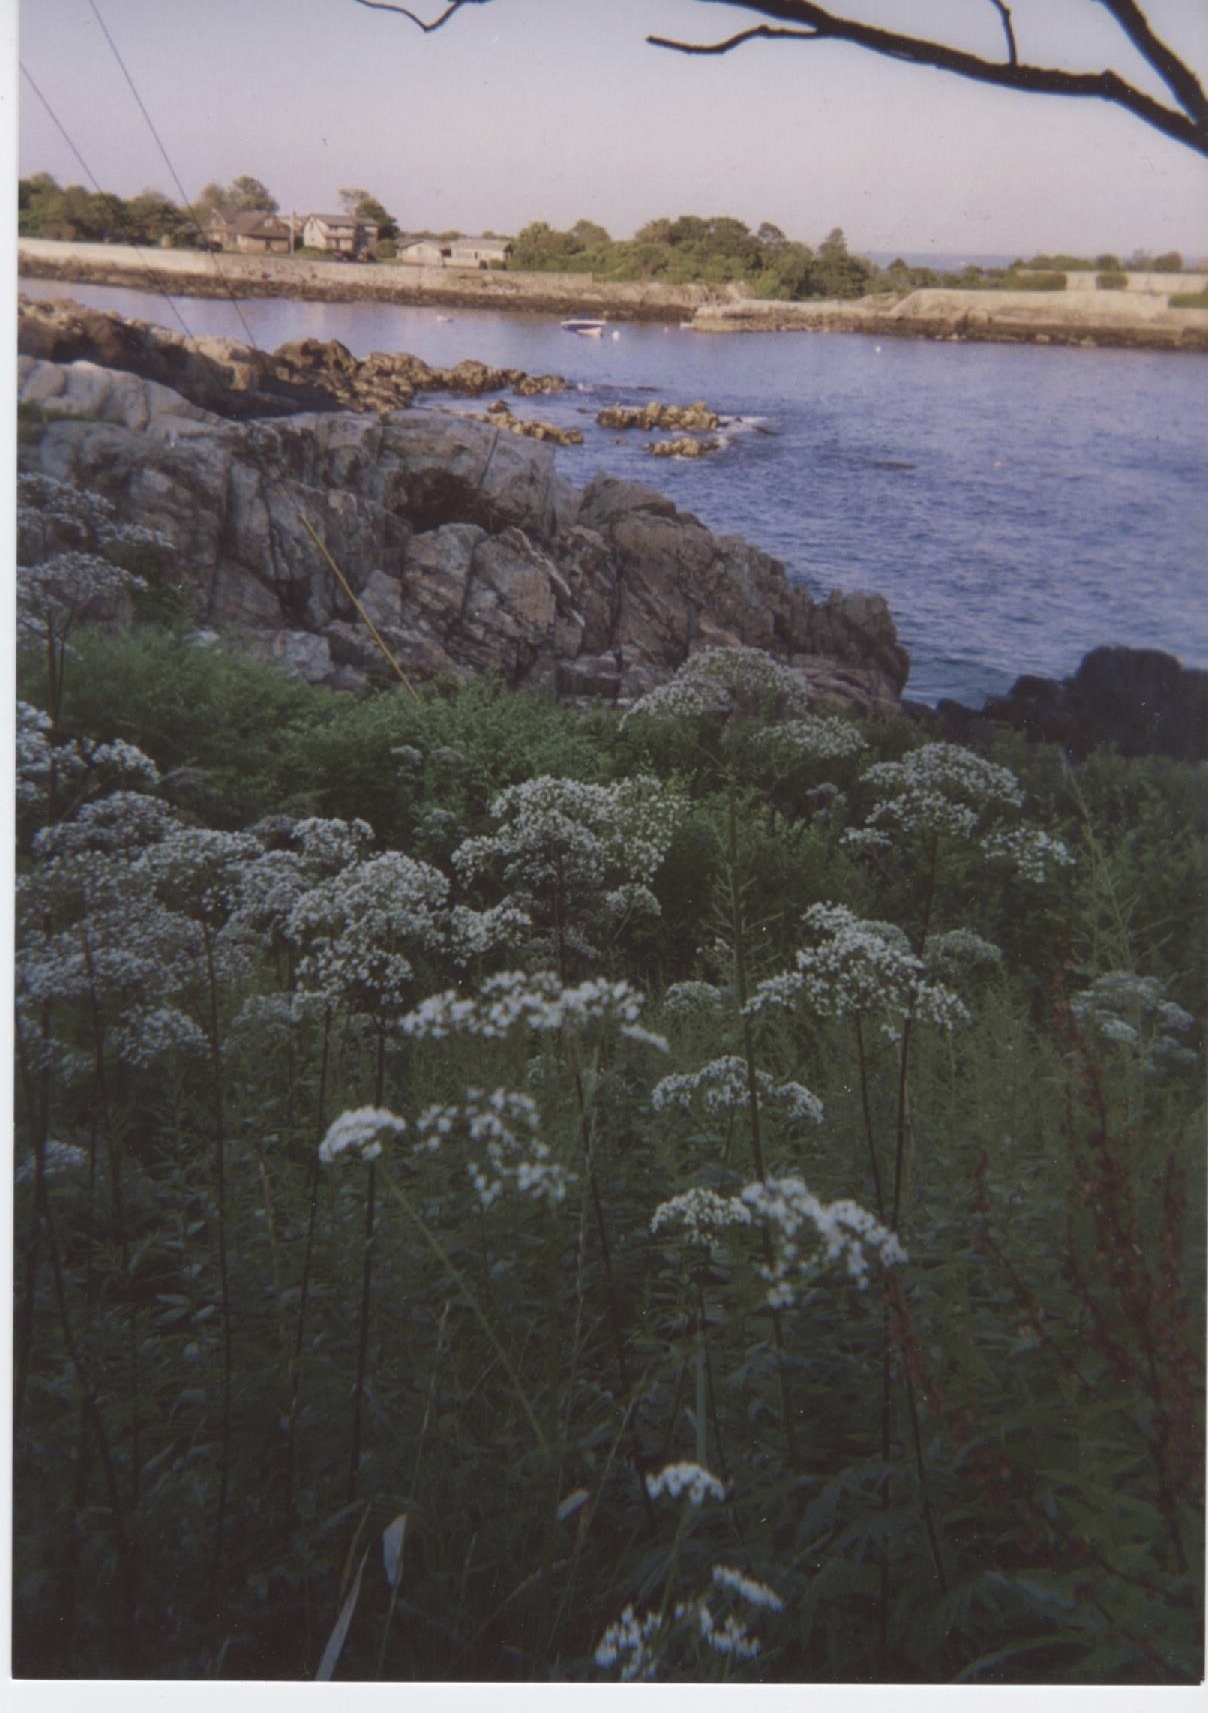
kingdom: Plantae
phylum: Tracheophyta
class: Magnoliopsida
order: Dipsacales
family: Caprifoliaceae
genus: Valeriana
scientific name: Valeriana officinalis
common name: Common valerian
